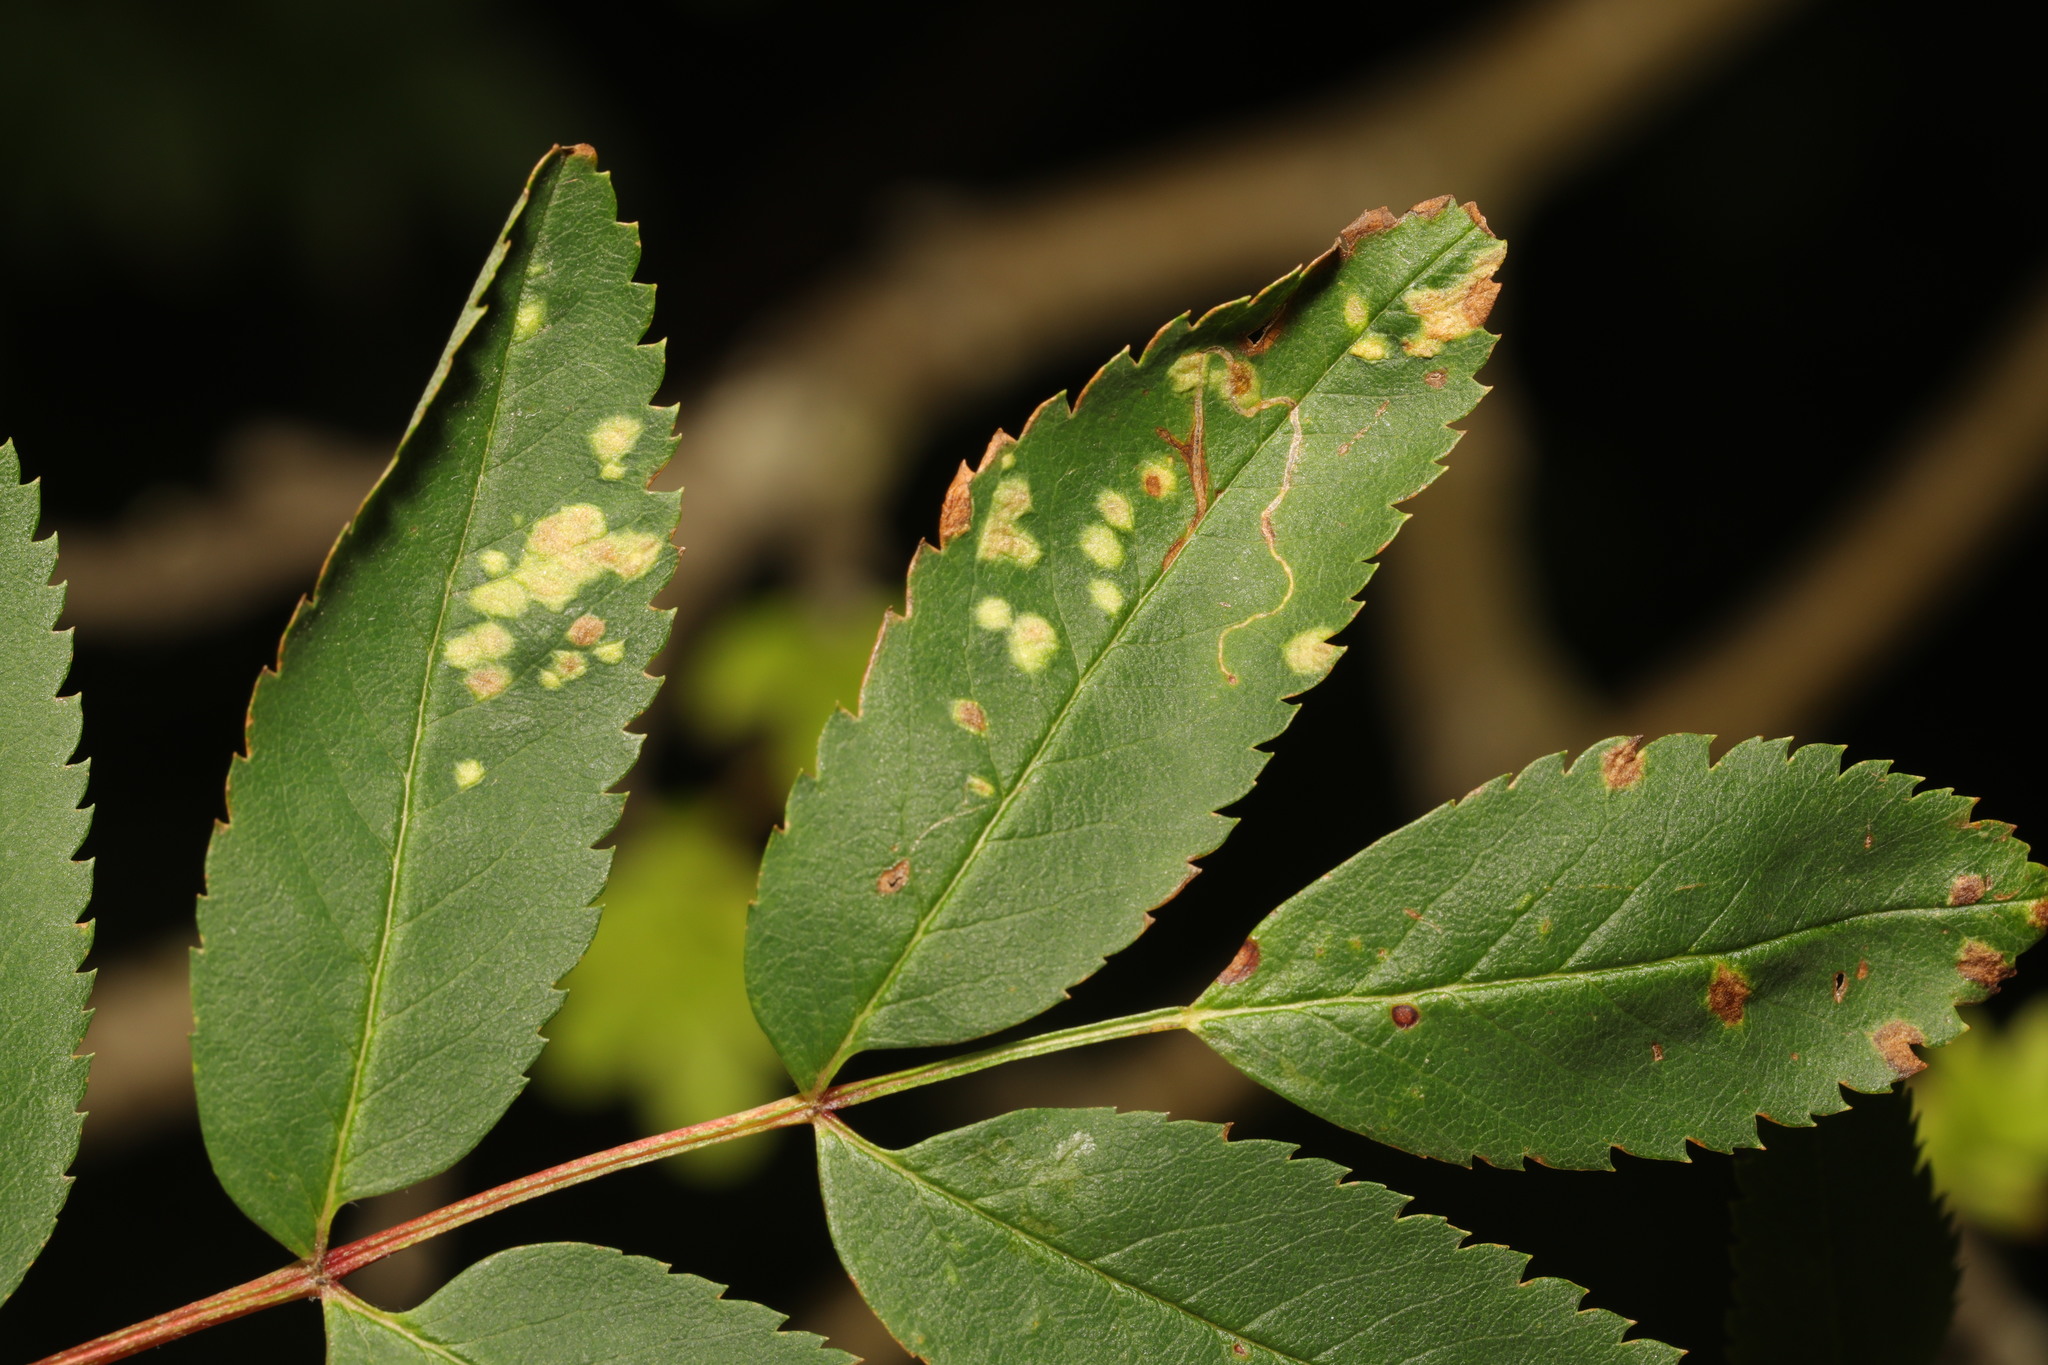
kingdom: Animalia
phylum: Arthropoda
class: Arachnida
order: Trombidiformes
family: Eriophyidae
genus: Eriophyes
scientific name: Eriophyes pyri
